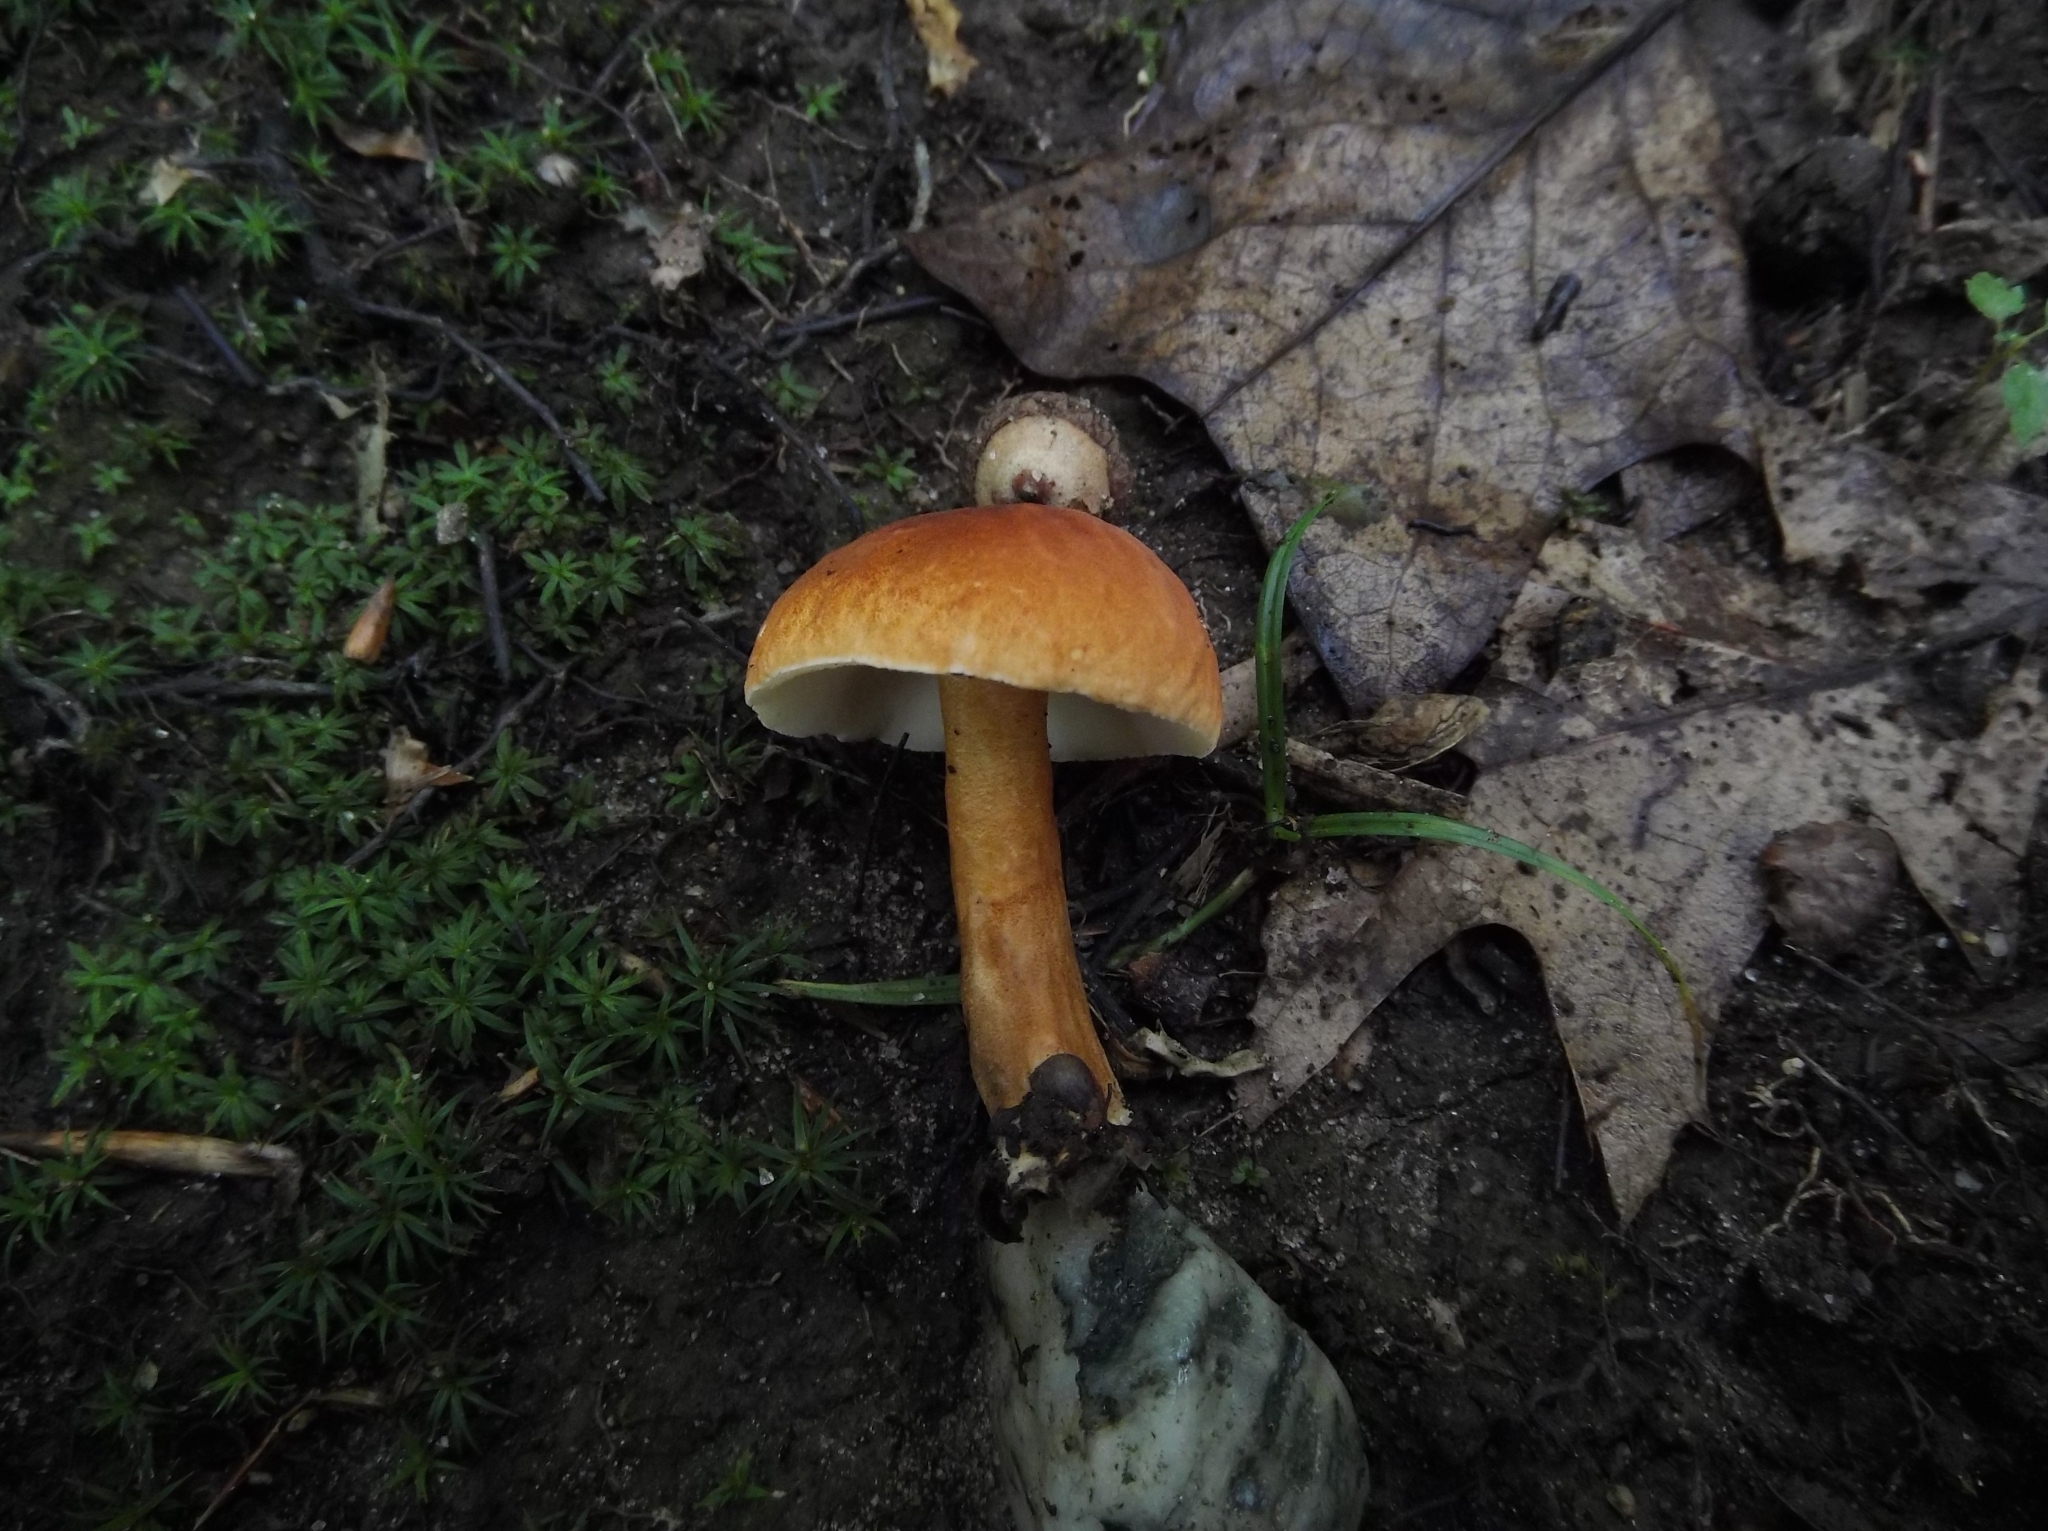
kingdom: Fungi
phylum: Basidiomycota
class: Agaricomycetes
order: Boletales
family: Gyroporaceae
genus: Gyroporus
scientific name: Gyroporus castaneus
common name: Chestnut bolete
